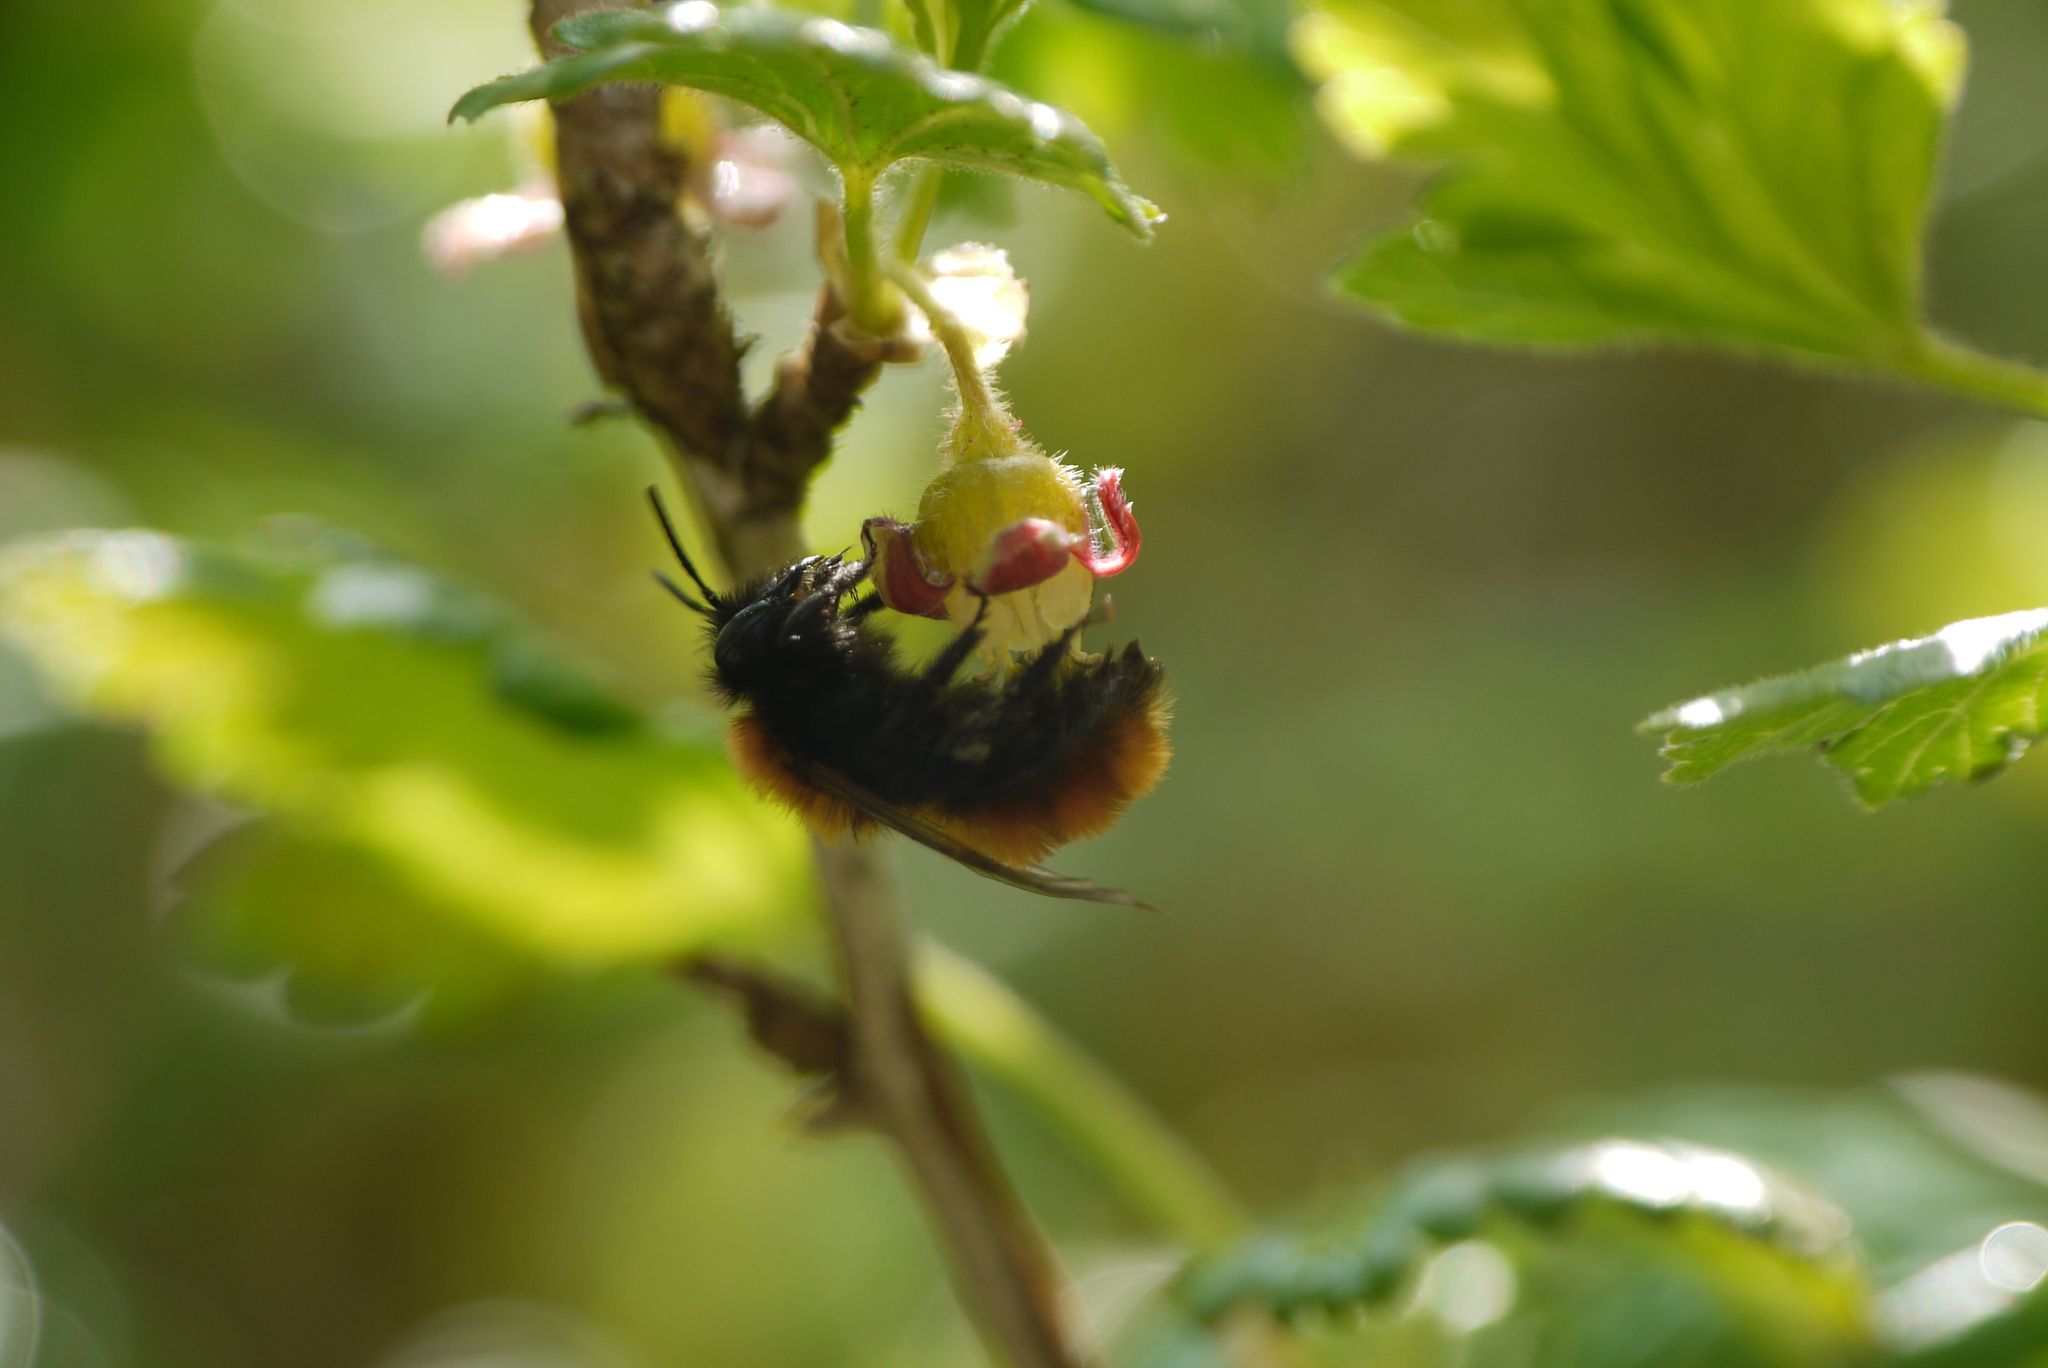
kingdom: Animalia
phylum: Arthropoda
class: Insecta
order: Hymenoptera
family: Andrenidae
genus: Andrena
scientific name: Andrena fulva
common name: Tawny mining bee
